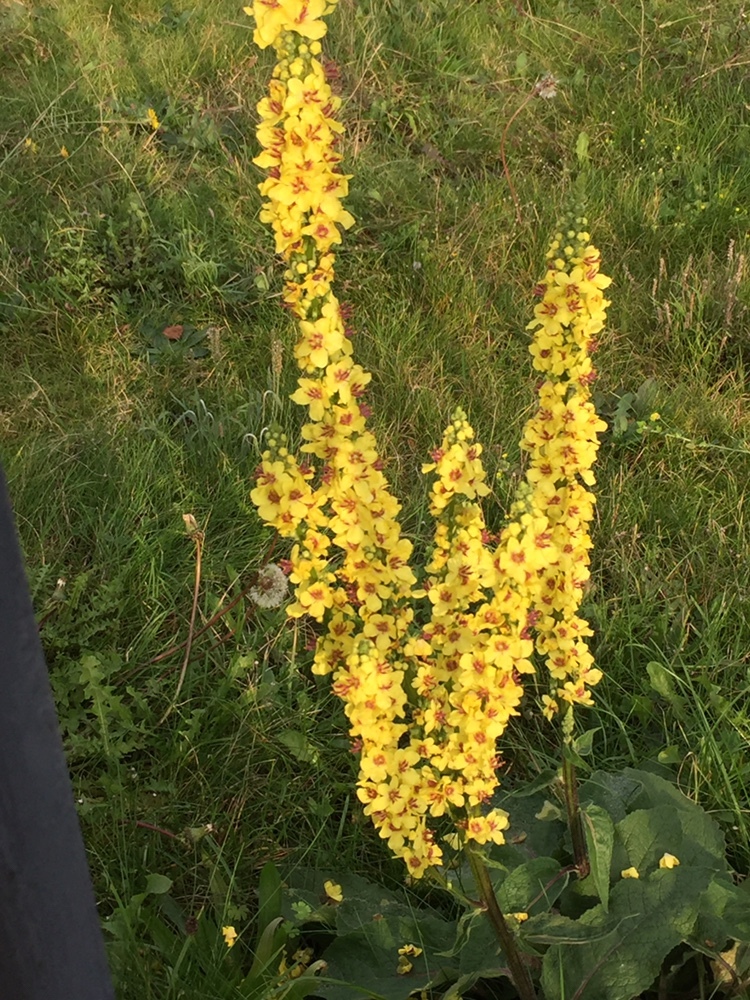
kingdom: Plantae
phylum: Tracheophyta
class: Magnoliopsida
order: Lamiales
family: Scrophulariaceae
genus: Verbascum
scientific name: Verbascum nigrum
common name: Dark mullein
